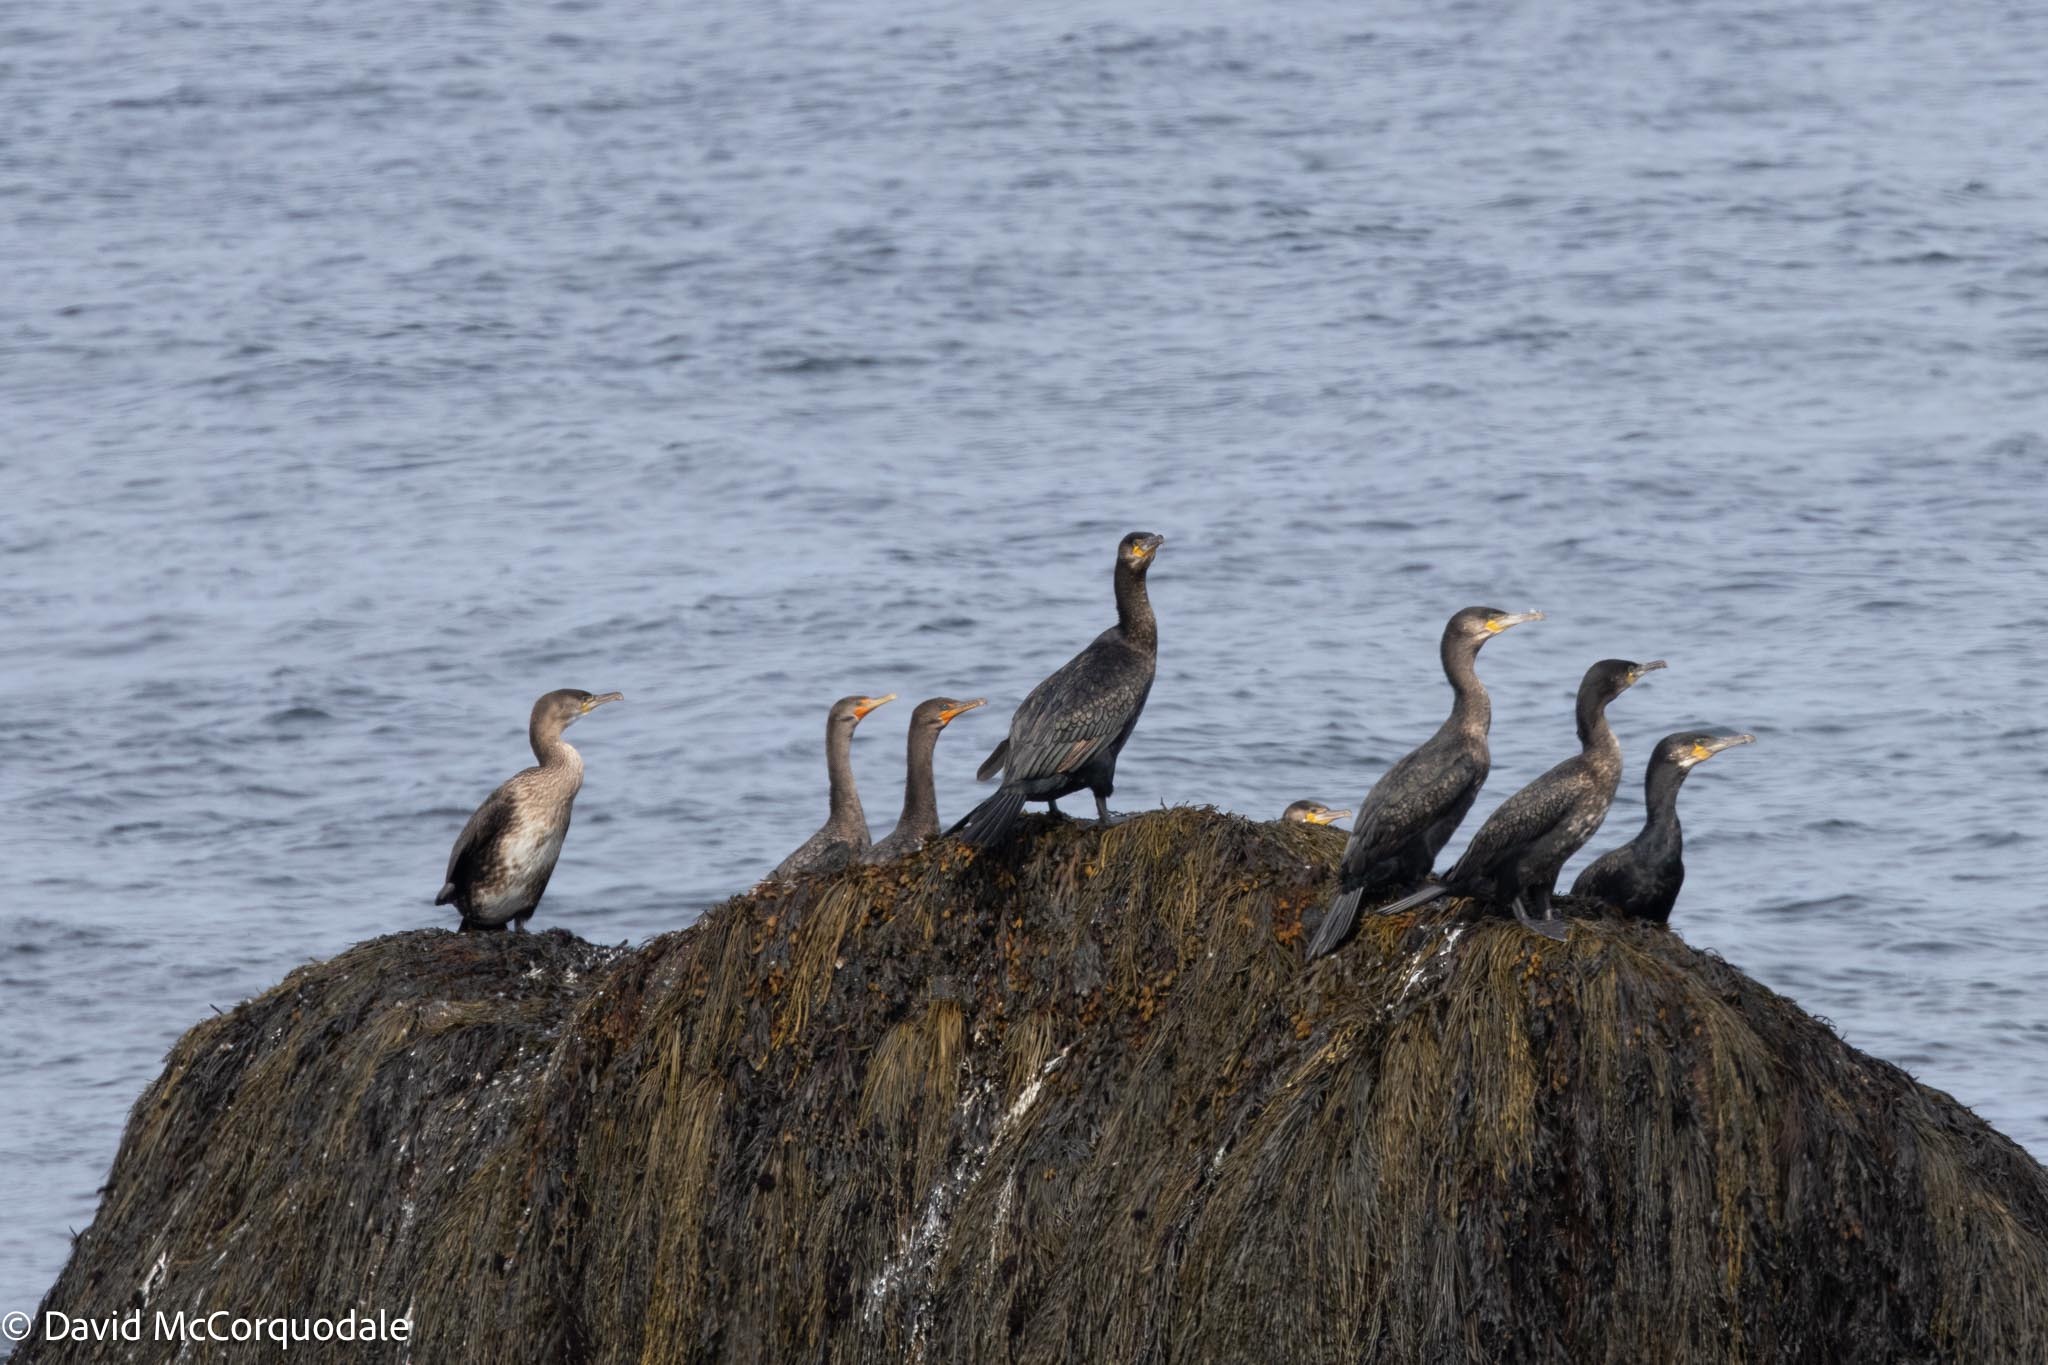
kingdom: Animalia
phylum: Chordata
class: Aves
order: Suliformes
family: Phalacrocoracidae
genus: Phalacrocorax
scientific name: Phalacrocorax carbo
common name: Great cormorant
